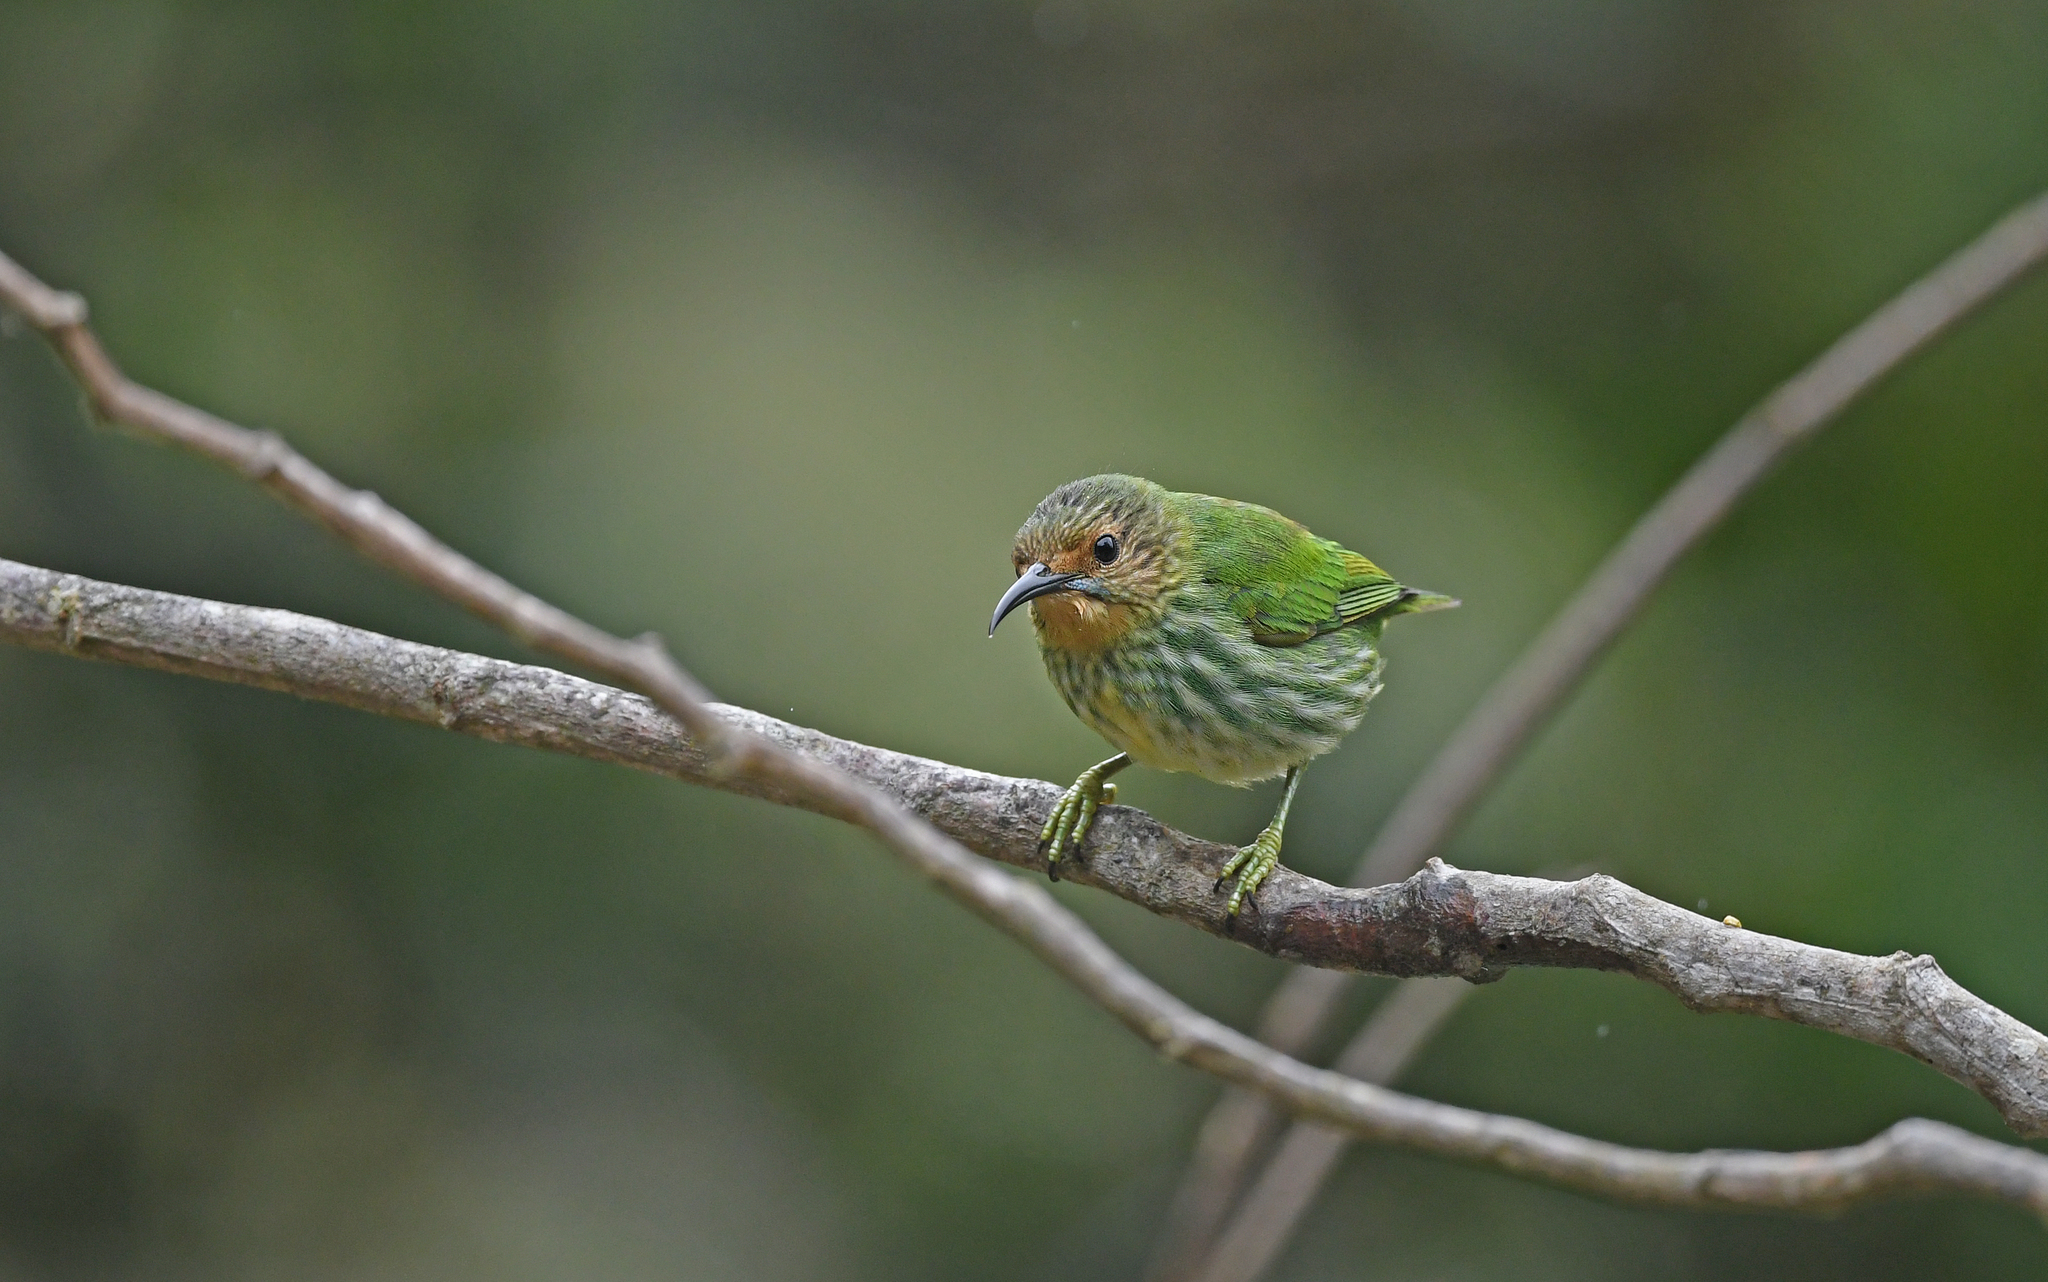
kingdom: Animalia
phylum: Chordata
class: Aves
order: Passeriformes
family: Thraupidae
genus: Cyanerpes
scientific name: Cyanerpes caeruleus
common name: Purple honeycreeper
